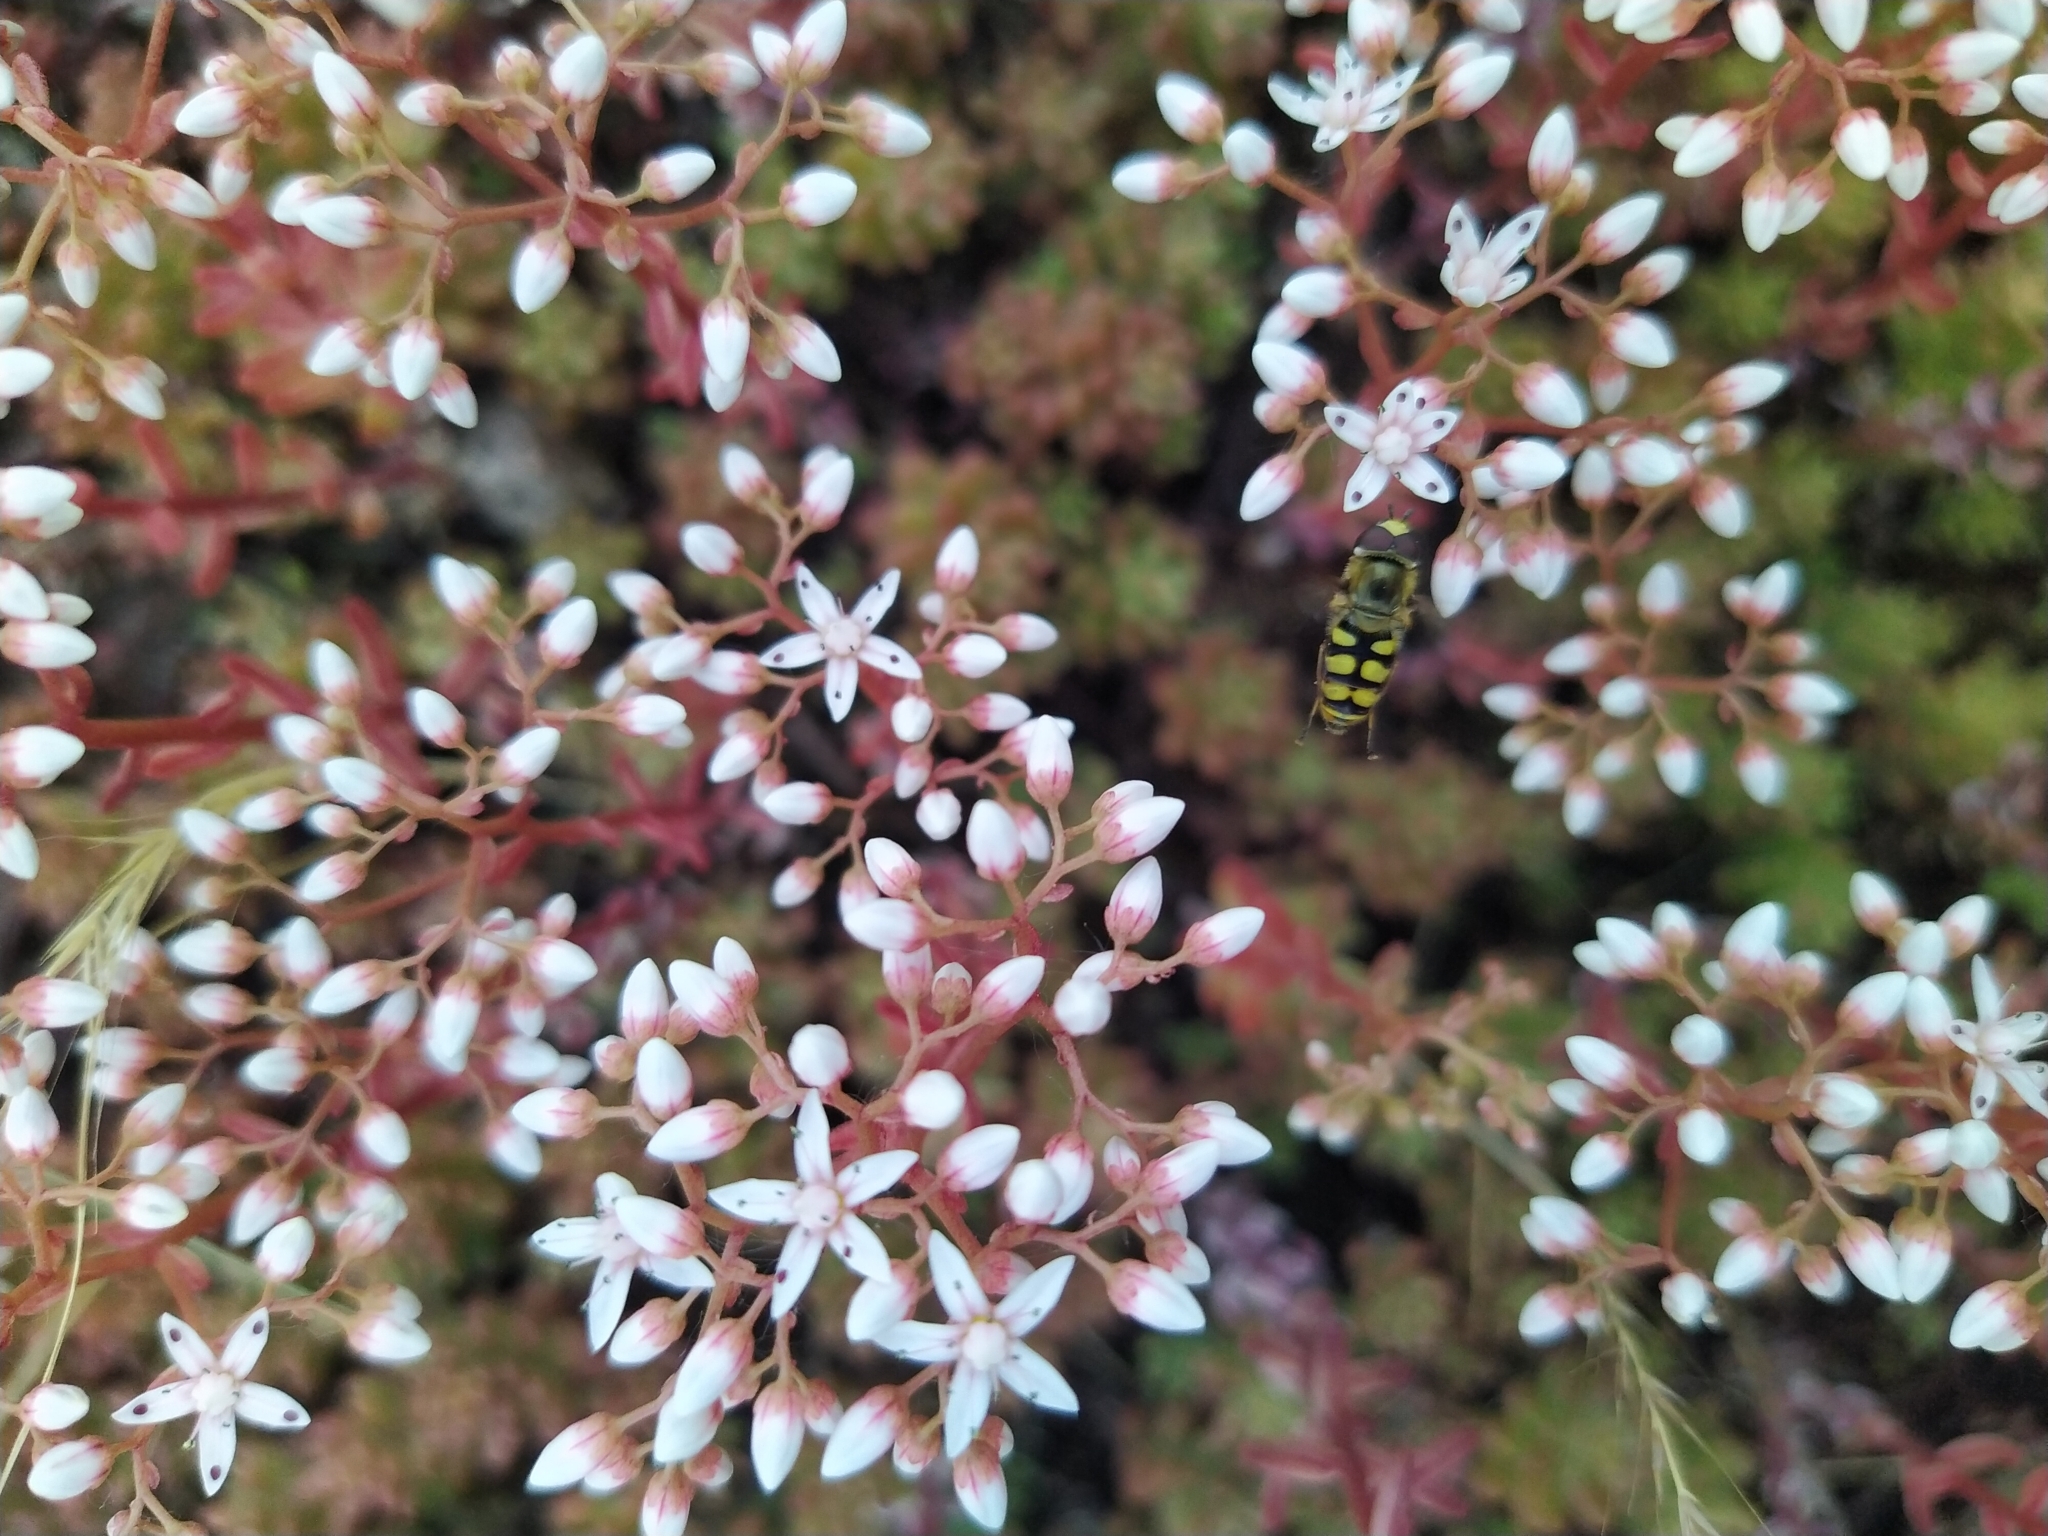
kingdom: Animalia
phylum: Arthropoda
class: Insecta
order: Diptera
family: Syrphidae
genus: Eupeodes
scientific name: Eupeodes corollae
